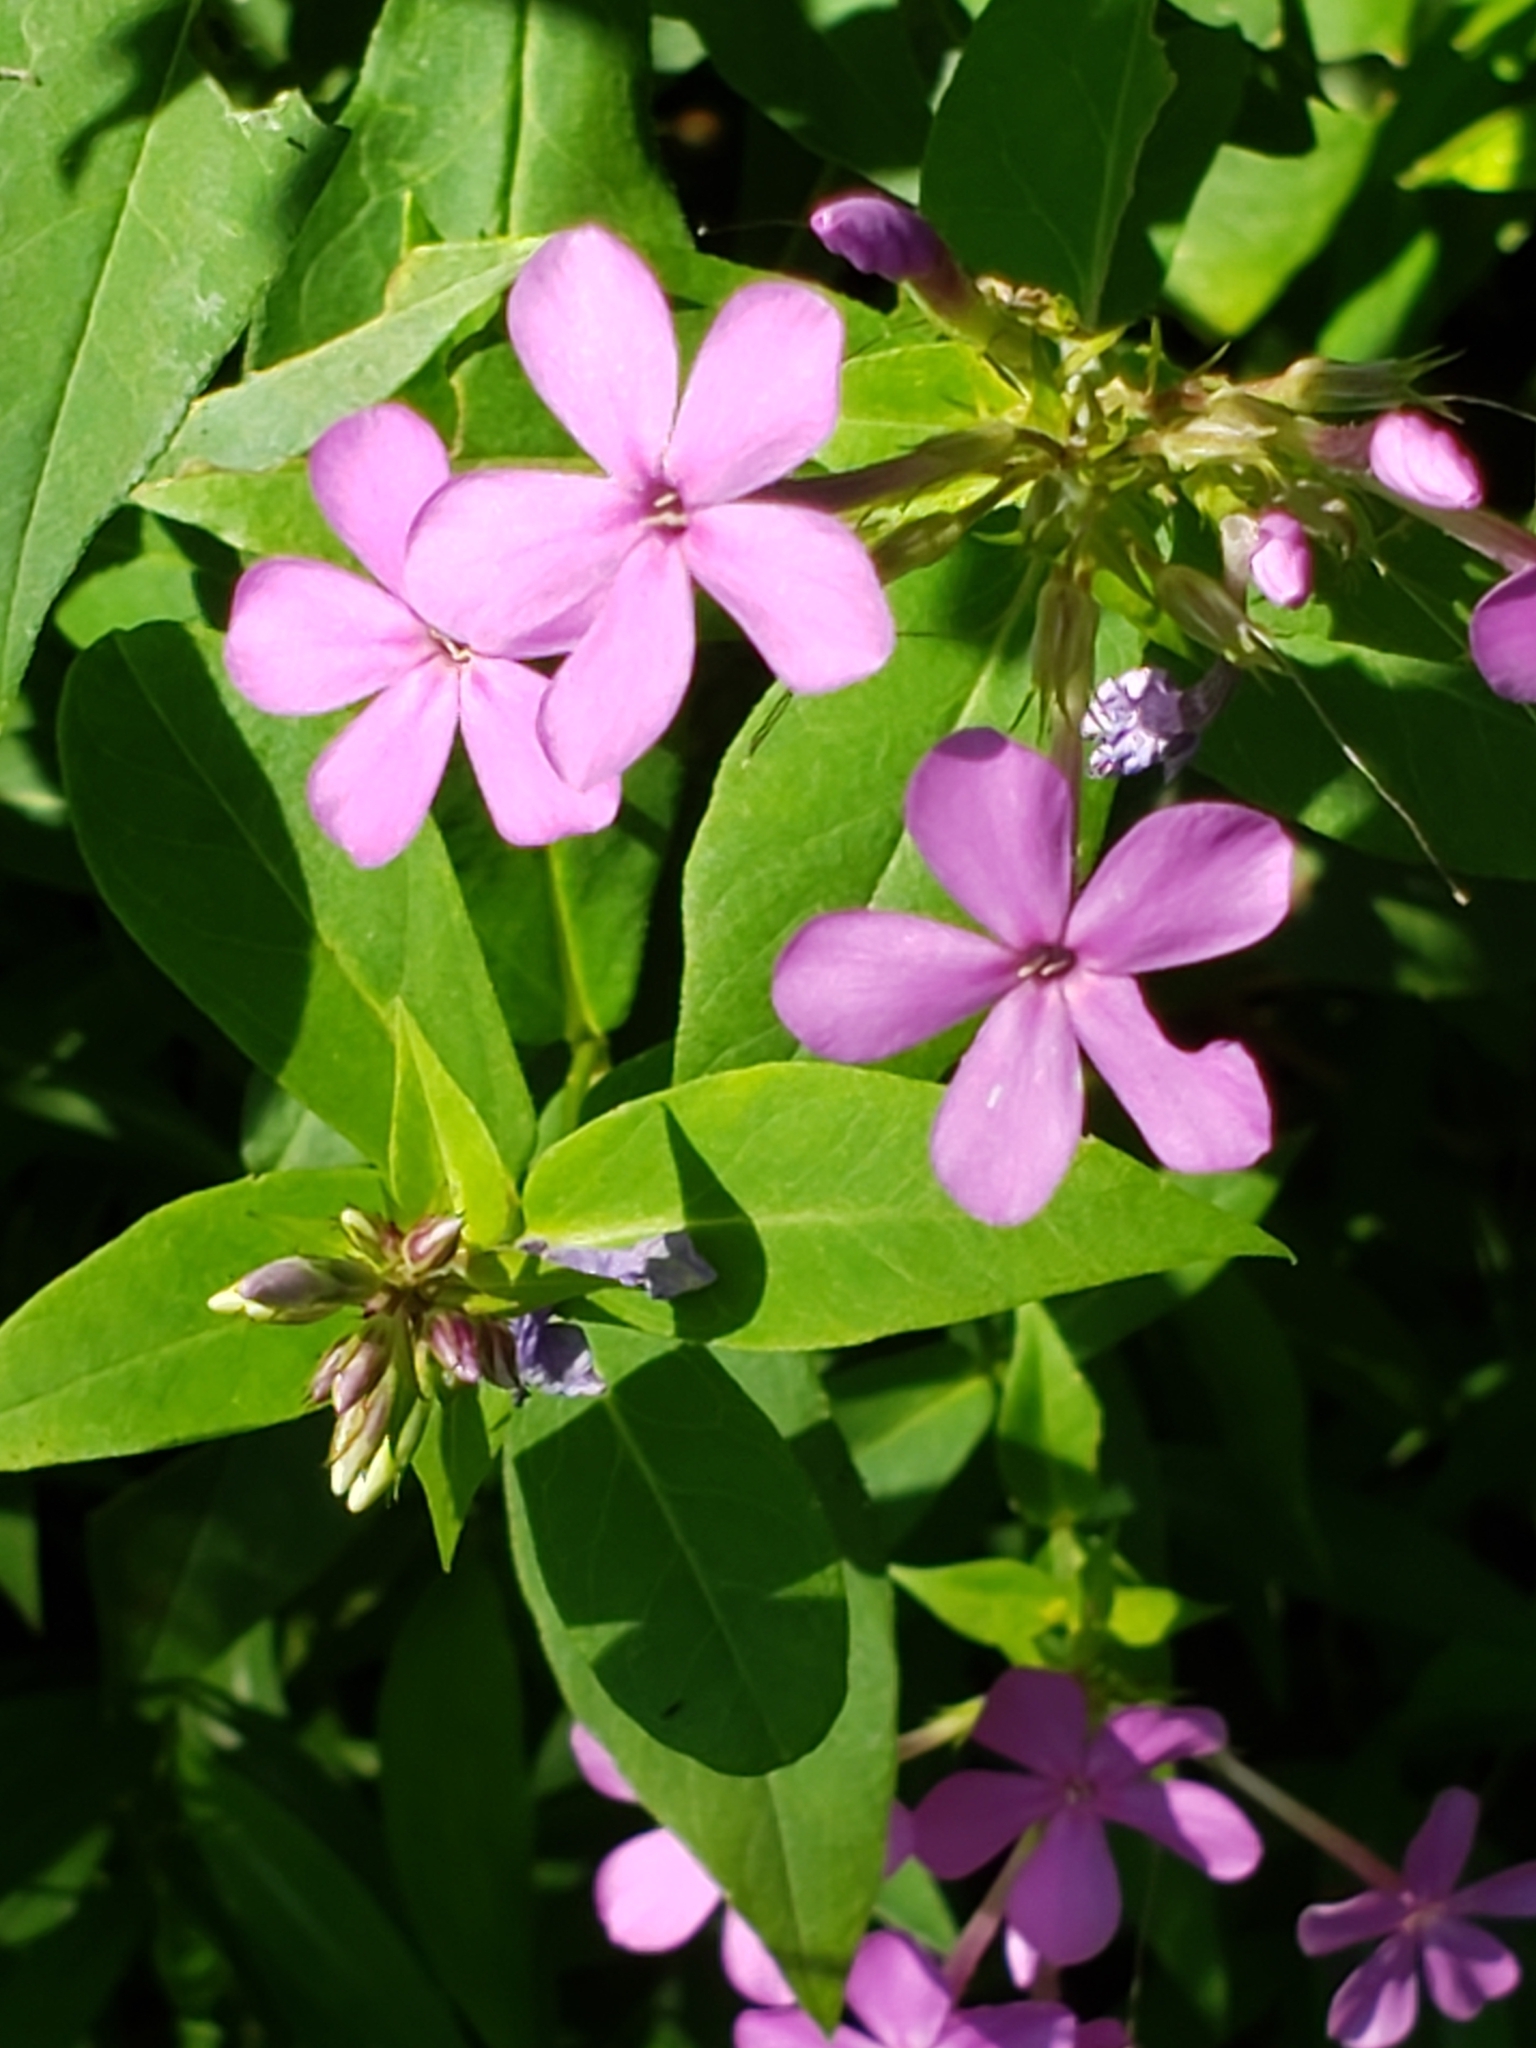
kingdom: Plantae
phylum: Tracheophyta
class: Magnoliopsida
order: Ericales
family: Polemoniaceae
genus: Phlox
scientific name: Phlox paniculata
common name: Fall phlox
